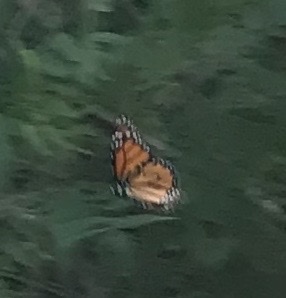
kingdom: Animalia
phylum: Arthropoda
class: Insecta
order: Lepidoptera
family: Nymphalidae
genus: Danaus
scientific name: Danaus plexippus
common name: Monarch
